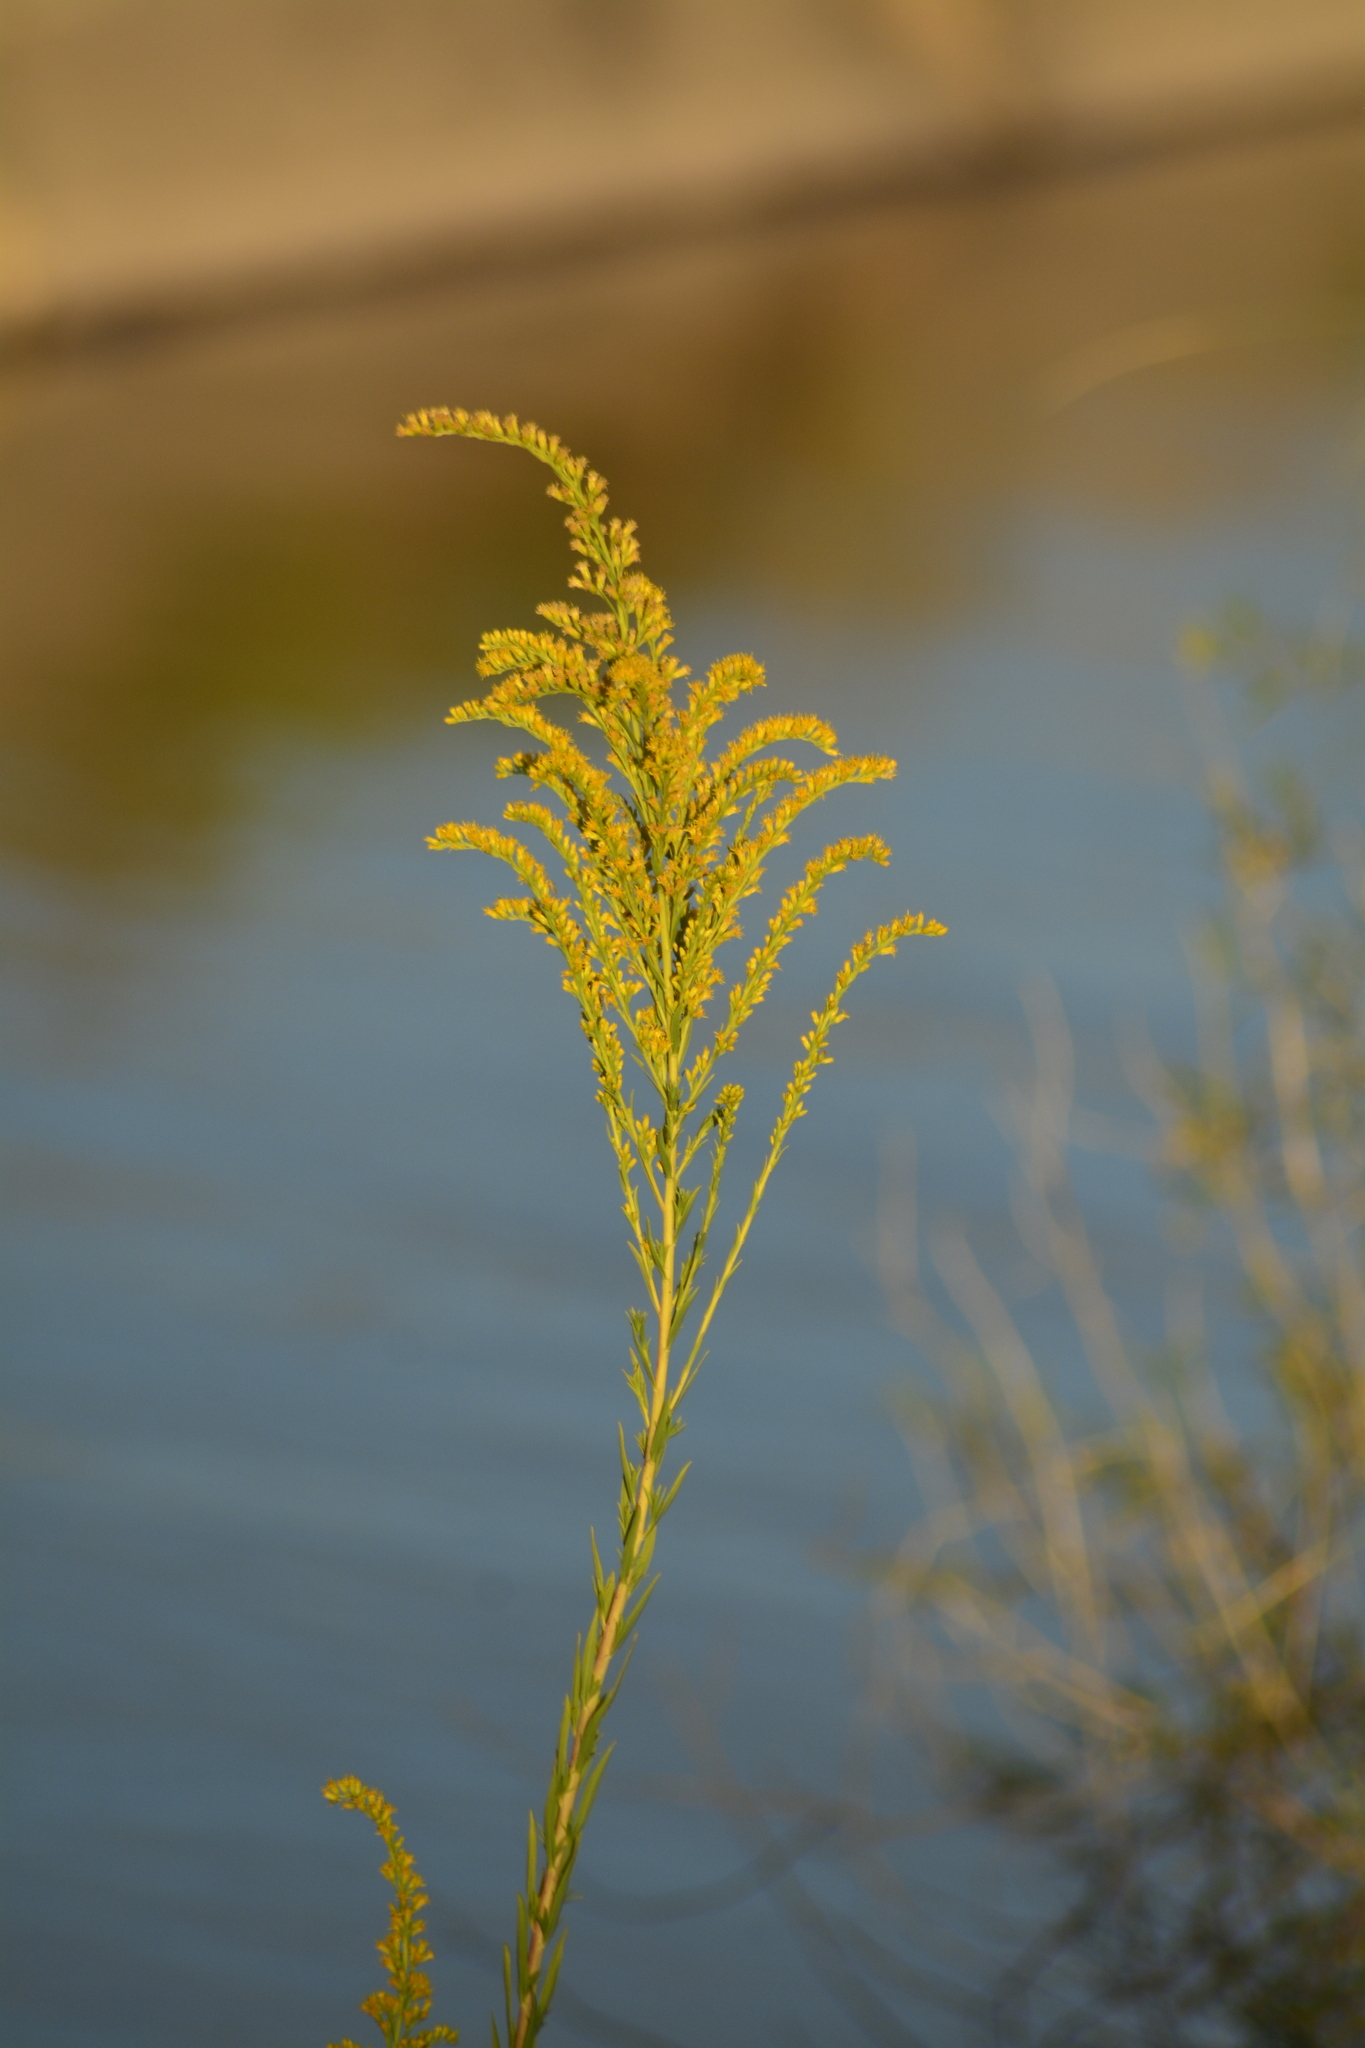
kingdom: Plantae
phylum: Tracheophyta
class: Magnoliopsida
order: Asterales
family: Asteraceae
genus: Solidago
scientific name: Solidago chilensis
